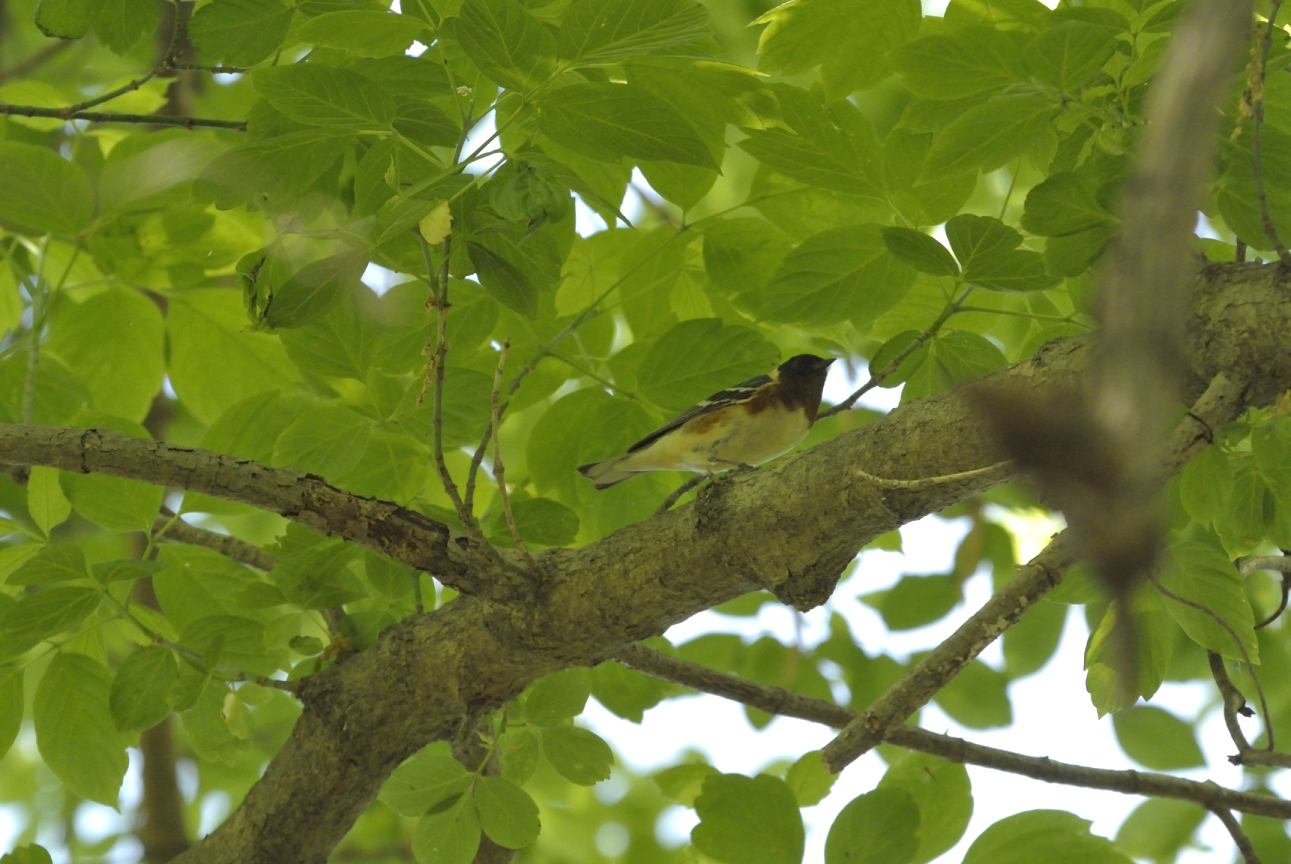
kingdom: Animalia
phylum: Chordata
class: Aves
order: Passeriformes
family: Parulidae
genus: Setophaga
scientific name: Setophaga castanea
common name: Bay-breasted warbler
